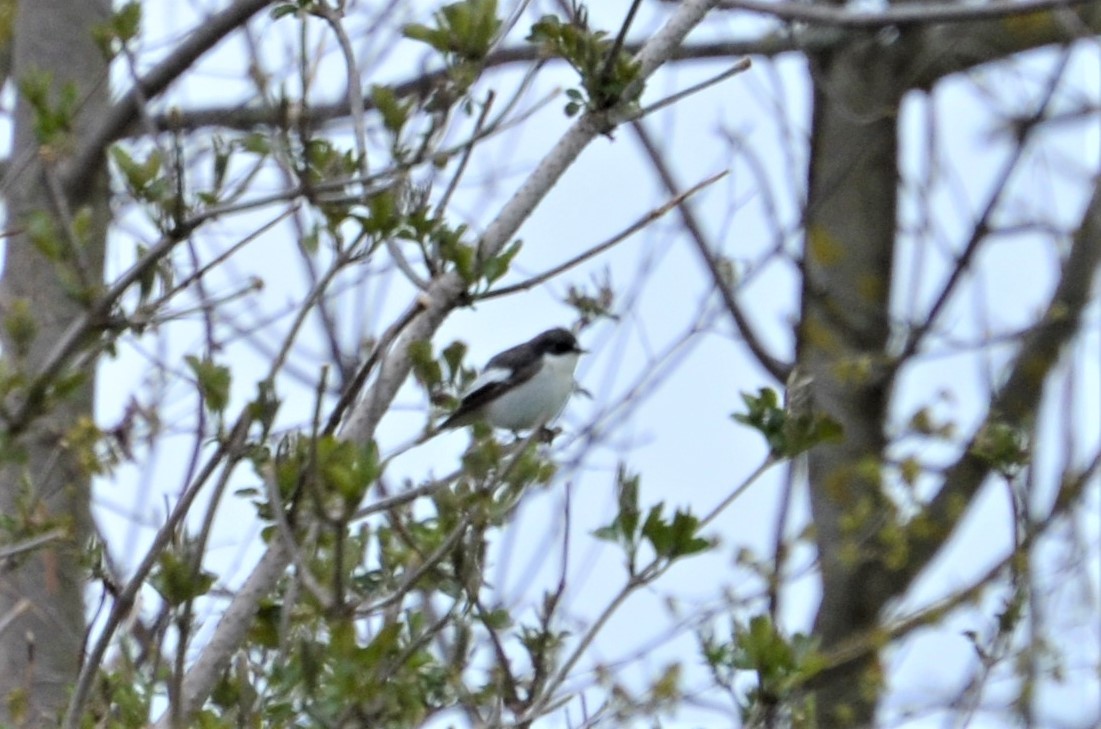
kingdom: Animalia
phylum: Chordata
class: Aves
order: Passeriformes
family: Muscicapidae
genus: Ficedula
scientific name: Ficedula hypoleuca
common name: European pied flycatcher
